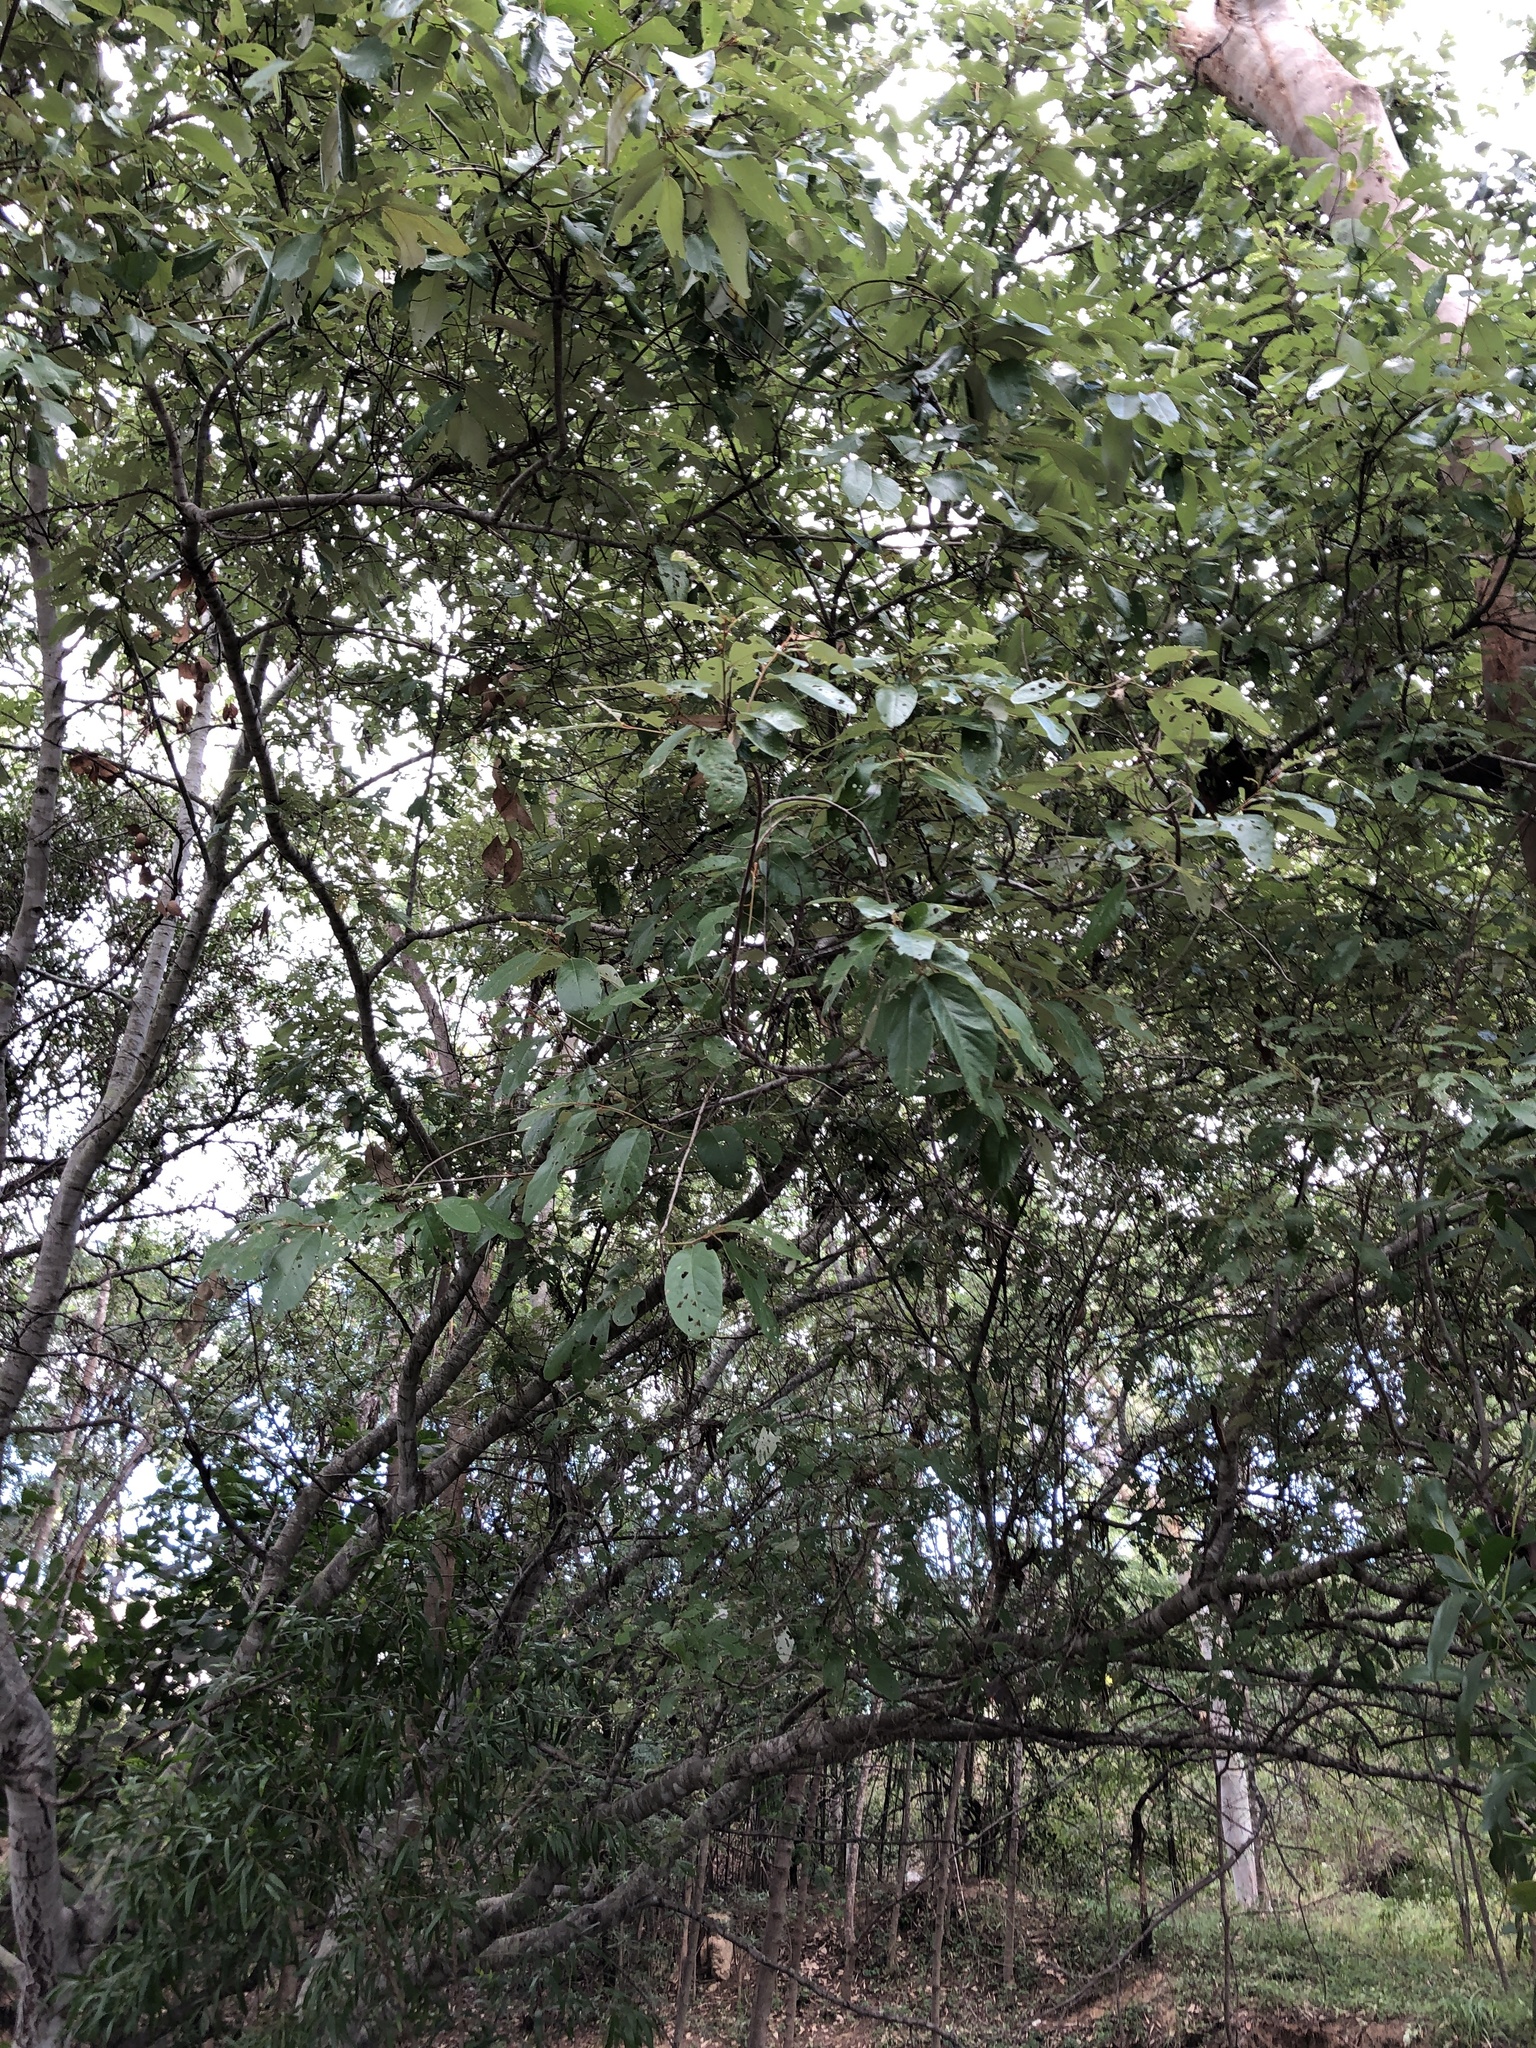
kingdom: Plantae
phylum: Tracheophyta
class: Magnoliopsida
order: Rosales
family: Rhamnaceae
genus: Alphitonia
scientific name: Alphitonia excelsa
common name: Red ash
